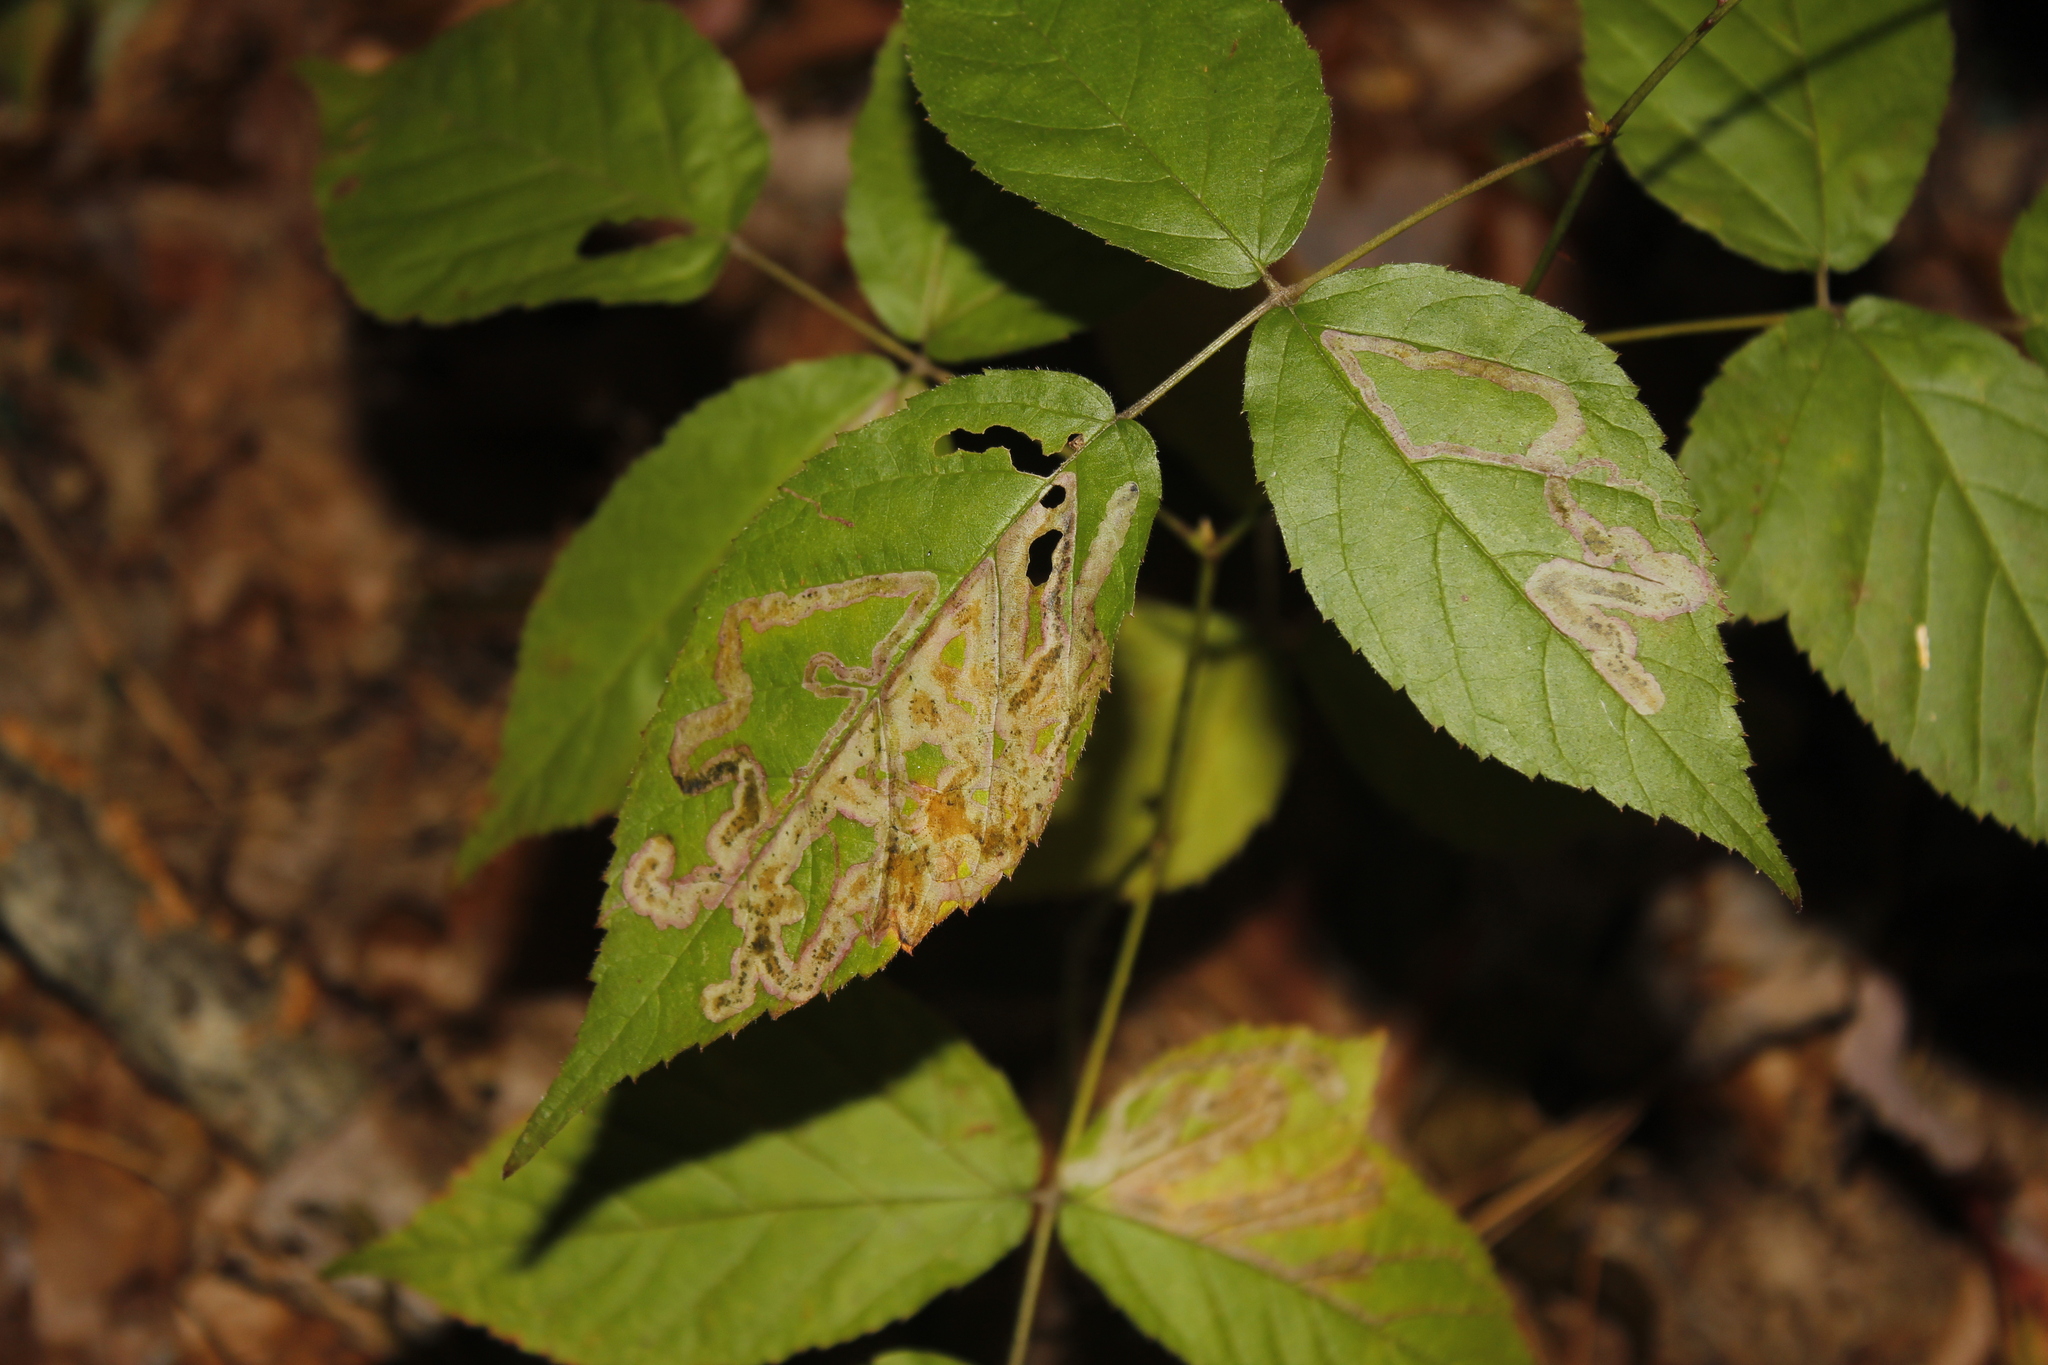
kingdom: Animalia
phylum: Arthropoda
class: Insecta
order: Diptera
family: Agromyzidae
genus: Agromyza
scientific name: Agromyza vockerothi
